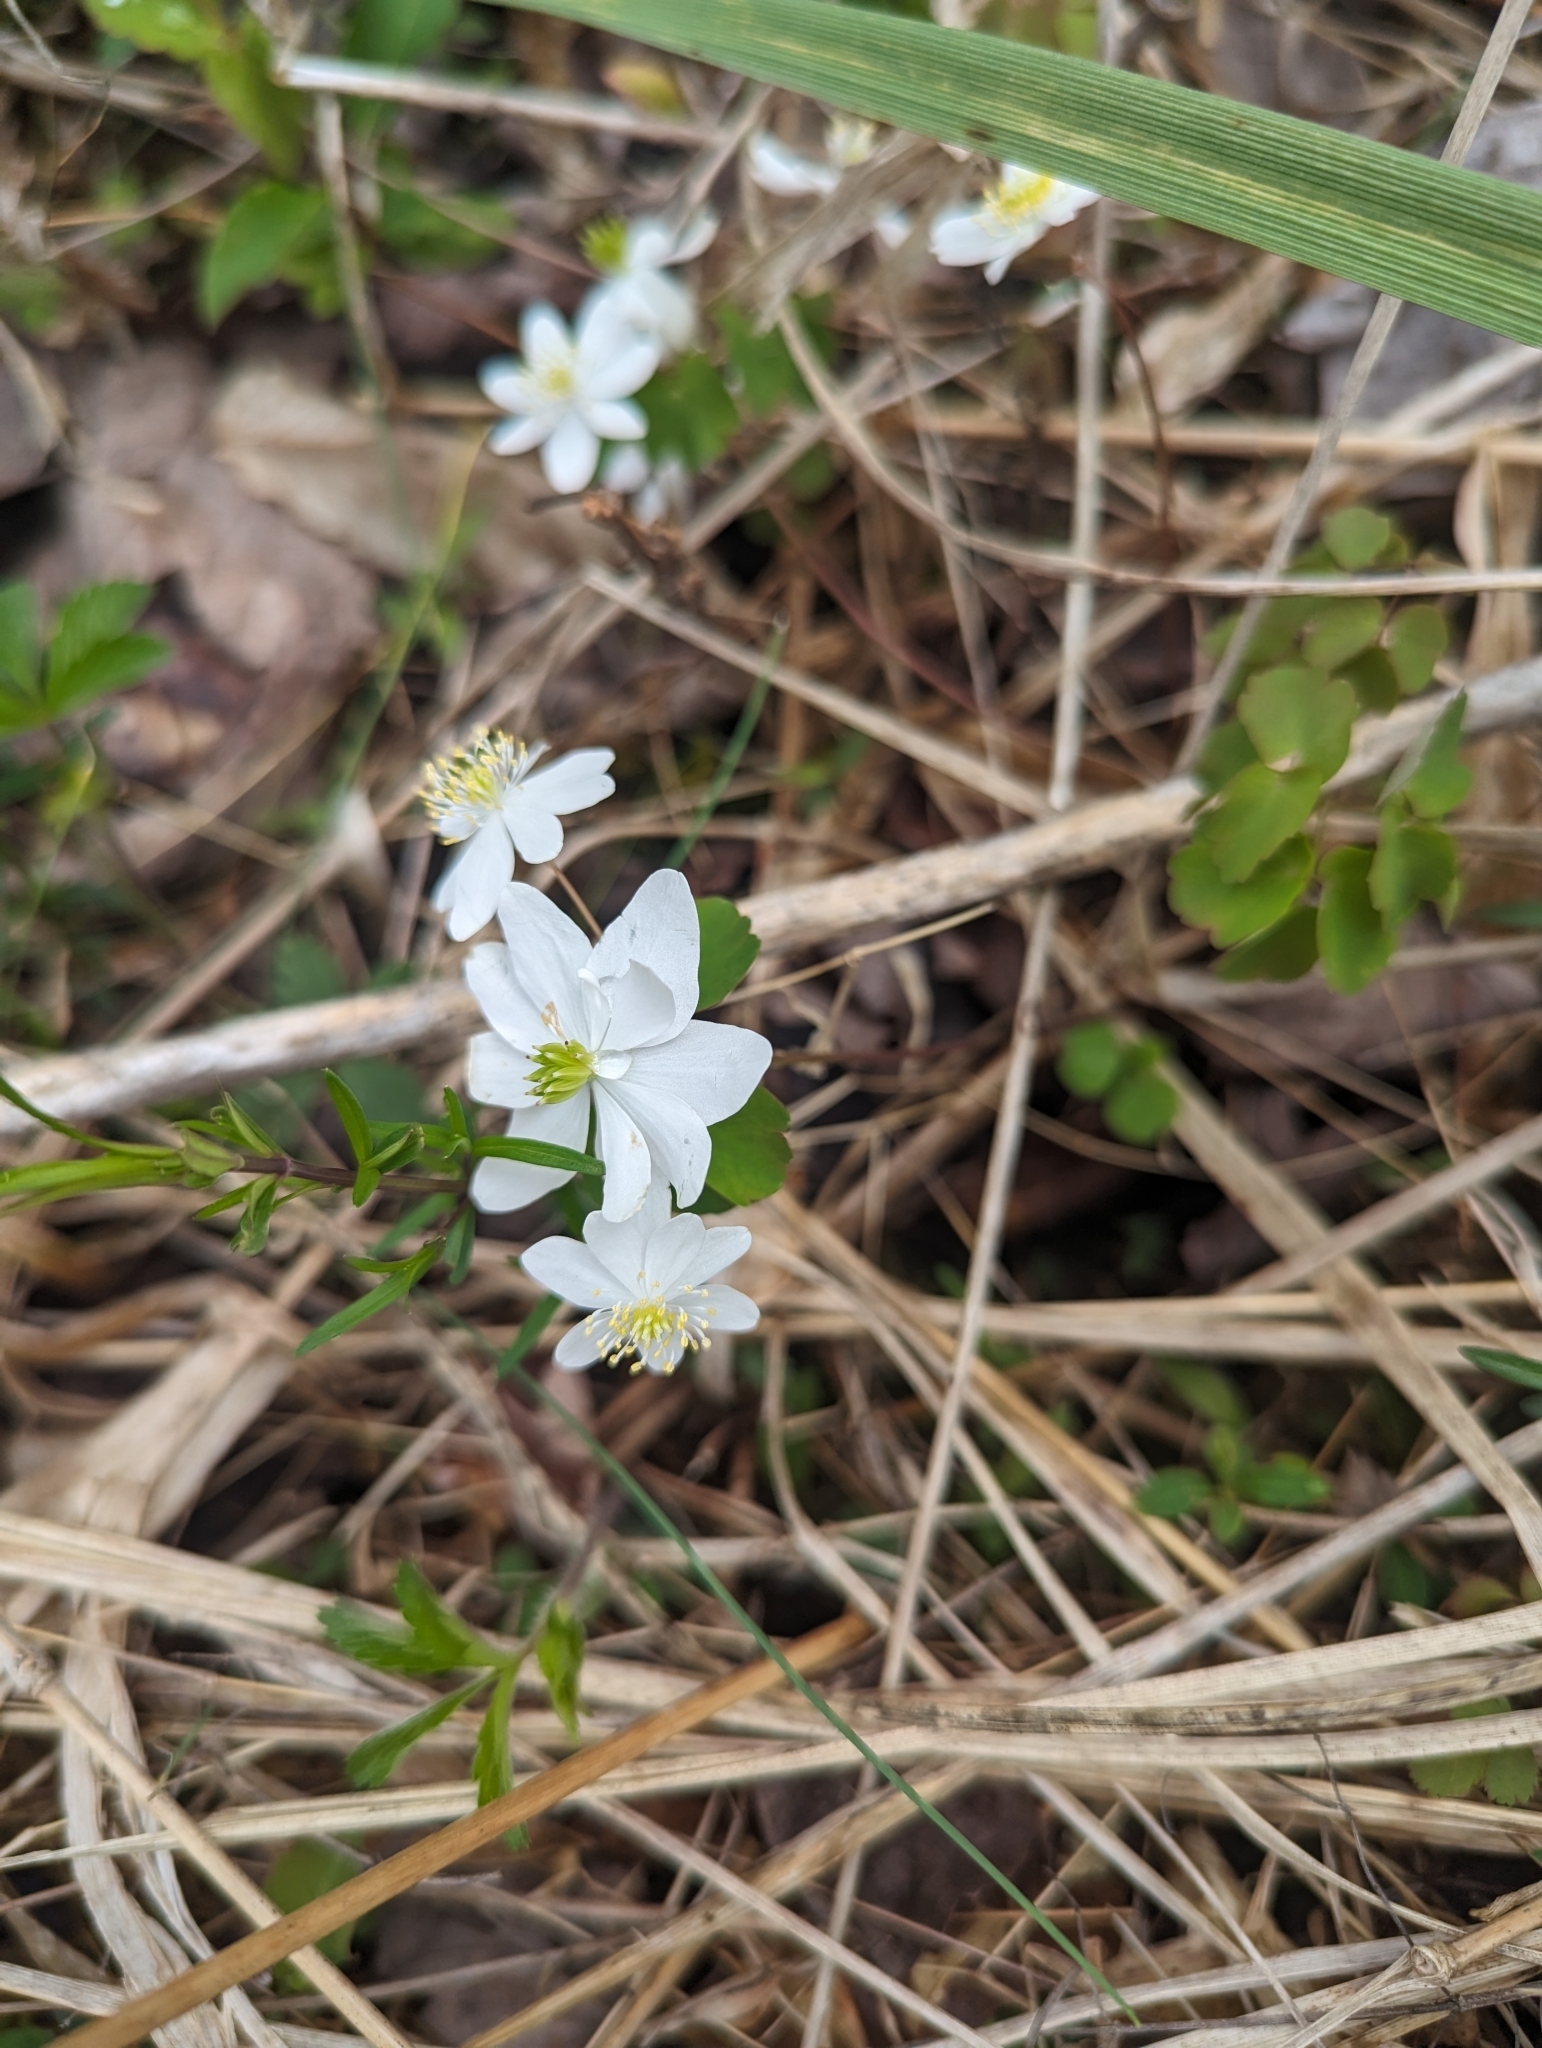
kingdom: Plantae
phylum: Tracheophyta
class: Magnoliopsida
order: Ranunculales
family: Ranunculaceae
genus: Thalictrum
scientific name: Thalictrum thalictroides
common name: Rue-anemone
